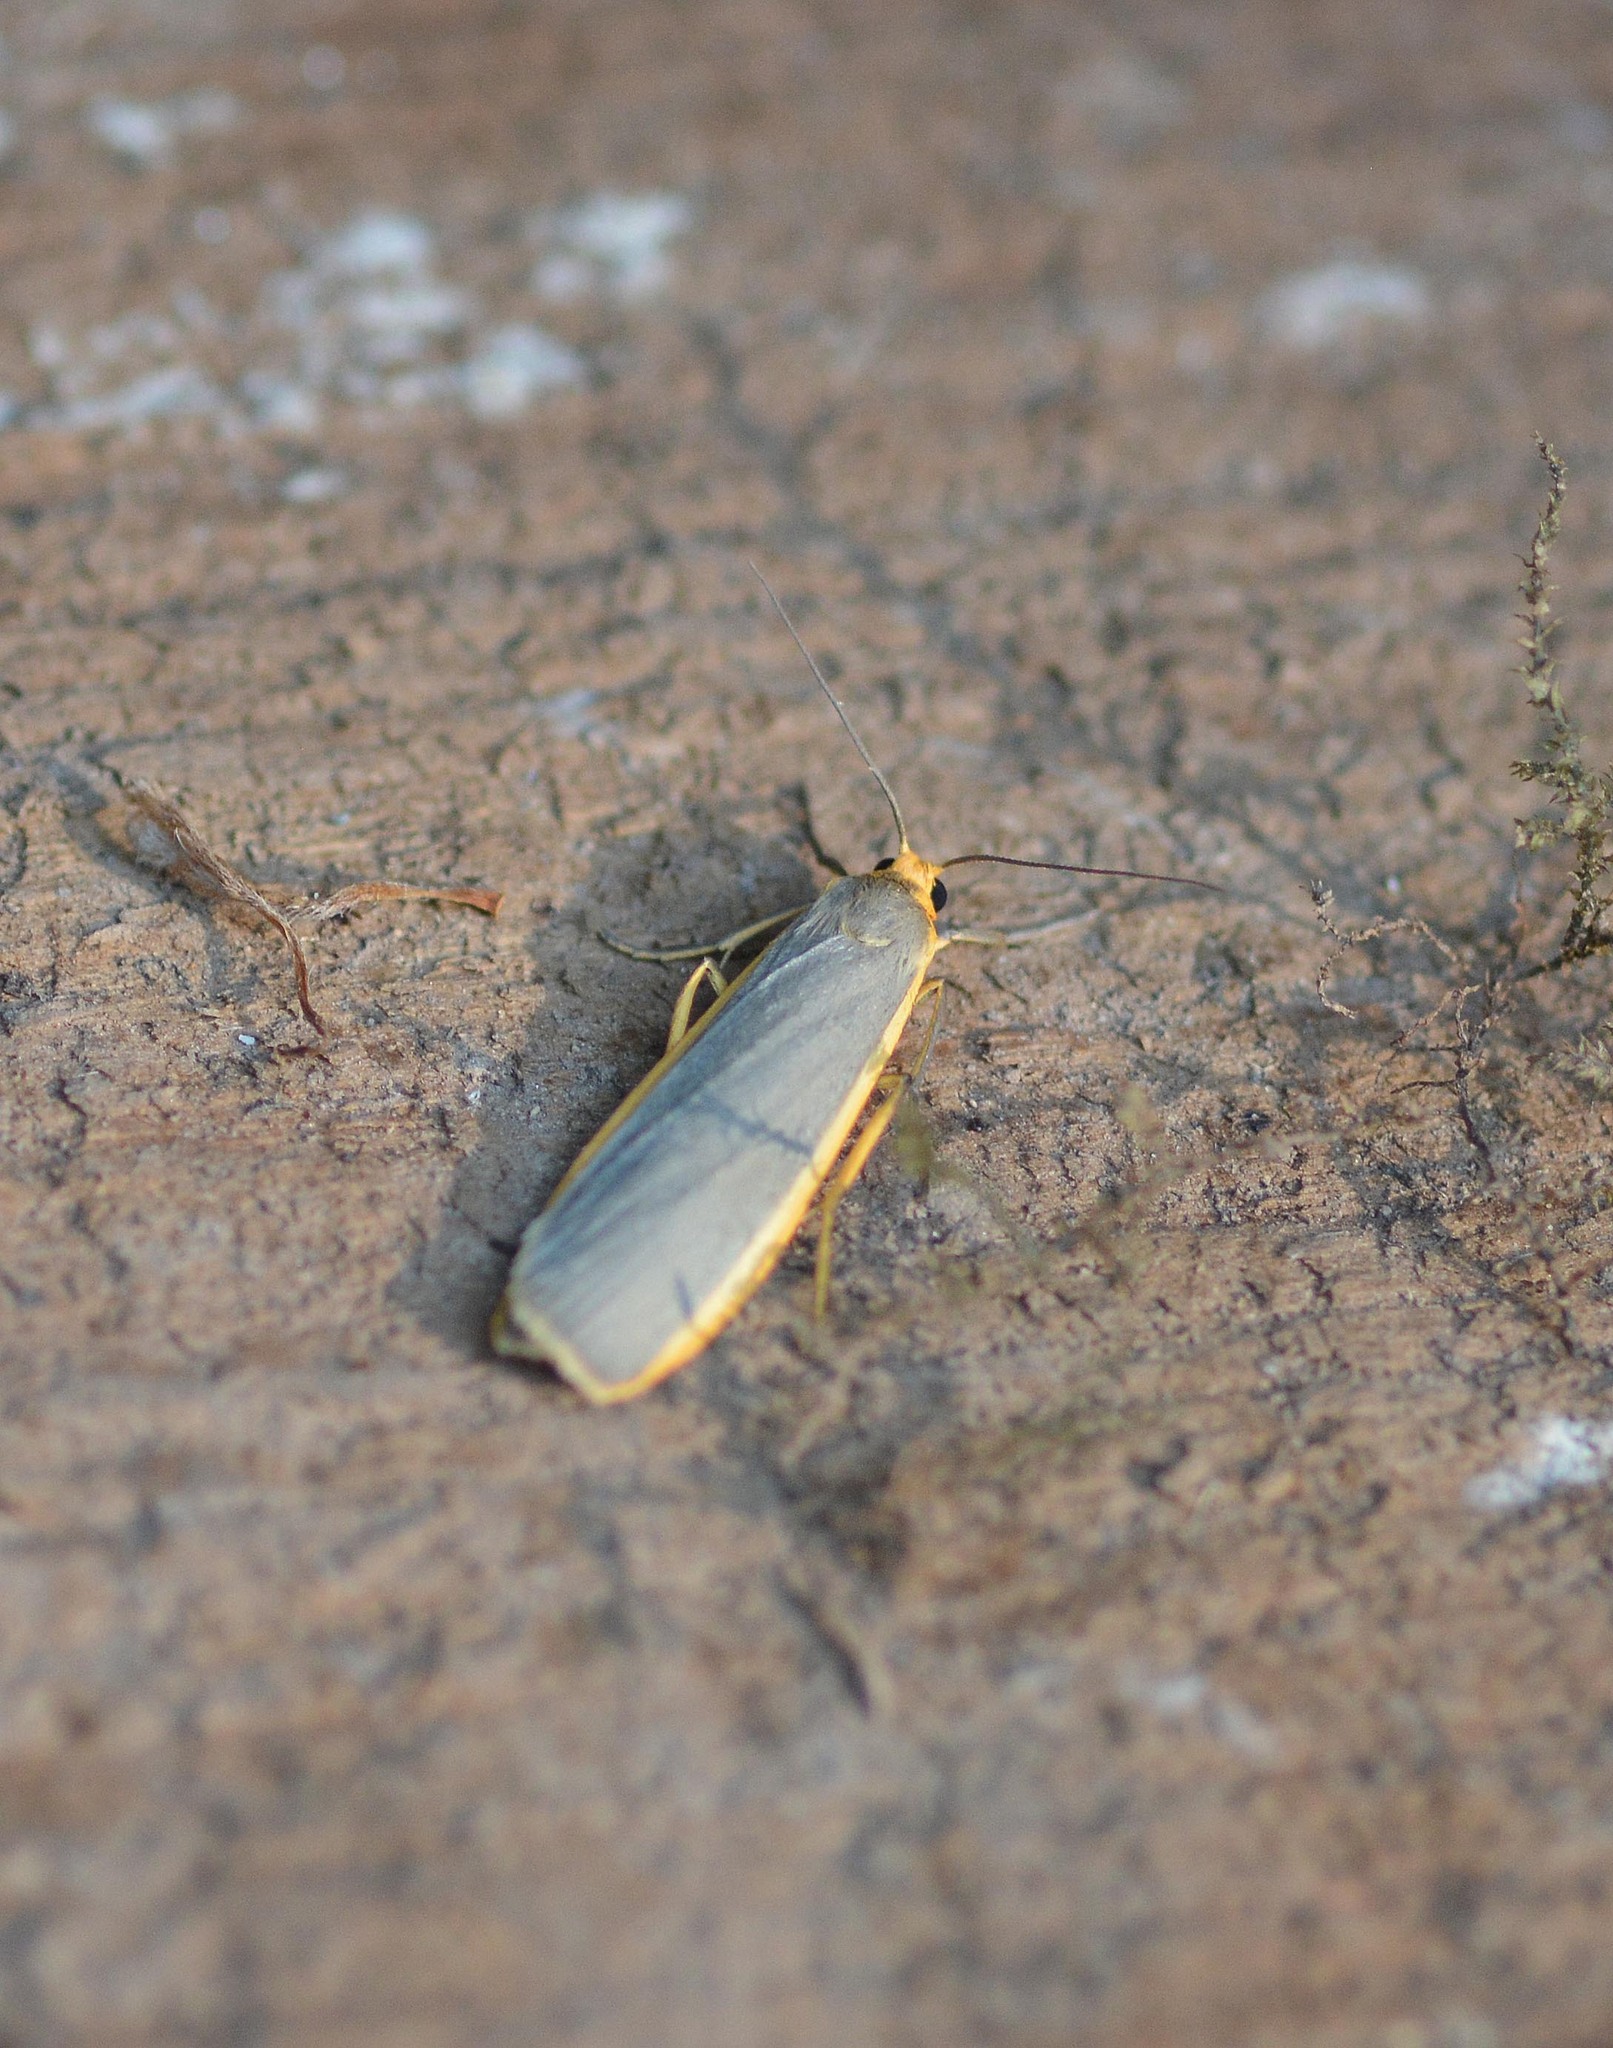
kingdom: Animalia
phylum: Arthropoda
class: Insecta
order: Lepidoptera
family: Erebidae
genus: Nyea
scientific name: Nyea lurideola
